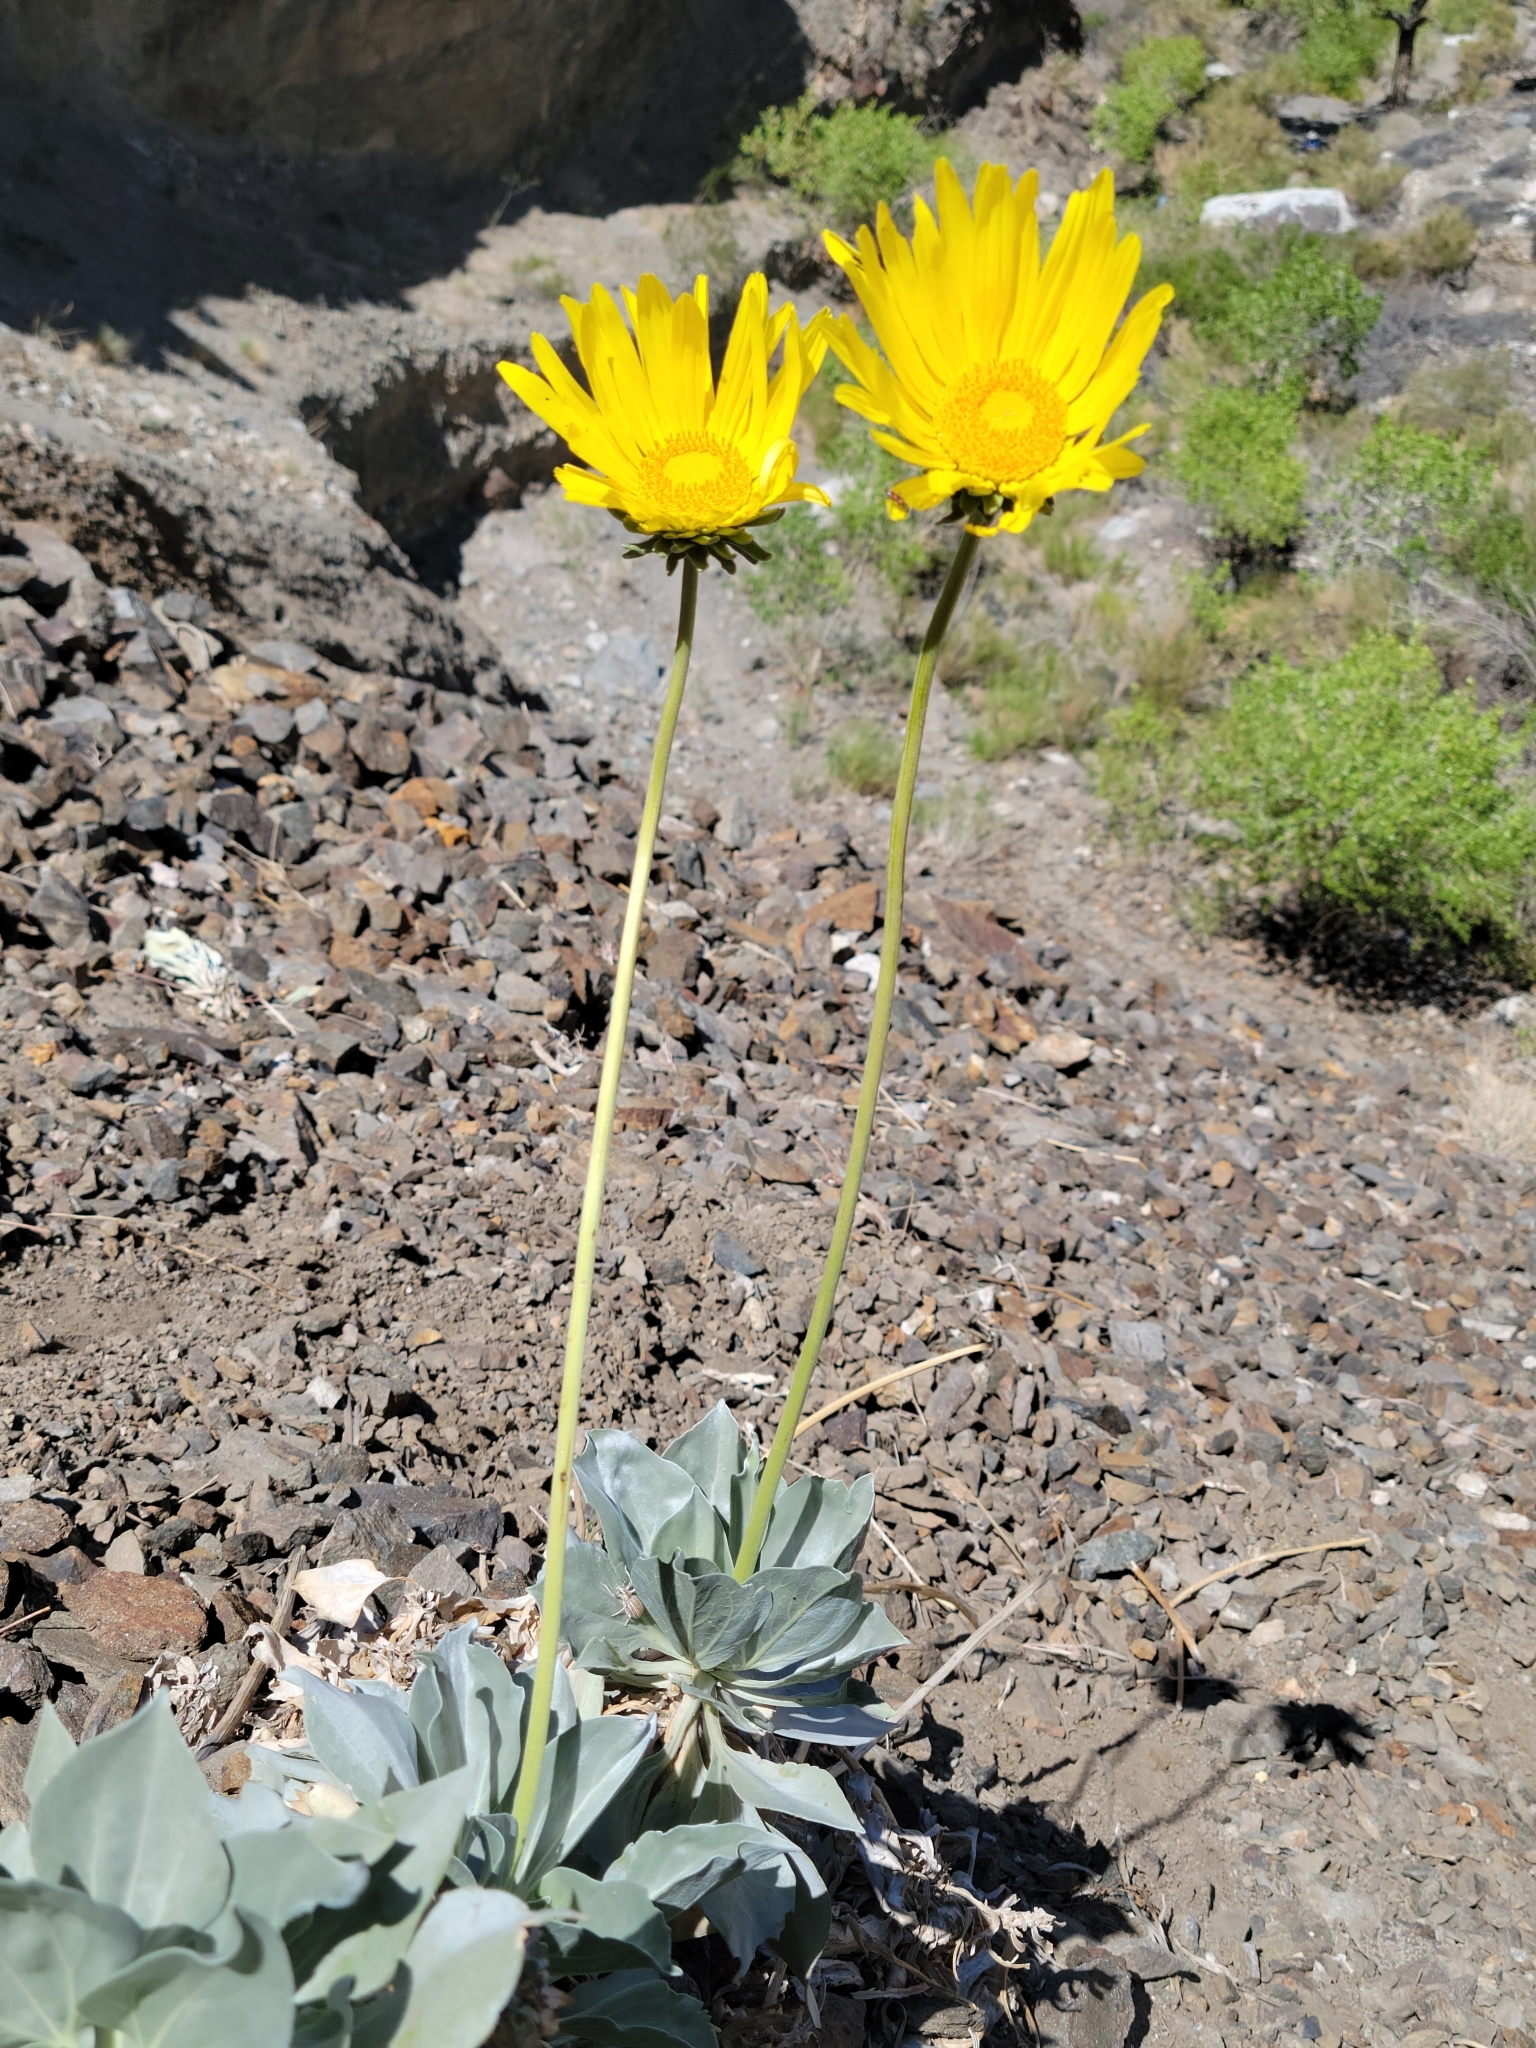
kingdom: Plantae
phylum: Tracheophyta
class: Magnoliopsida
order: Asterales
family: Asteraceae
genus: Enceliopsis
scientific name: Enceliopsis covillei
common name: Panamint daisy
